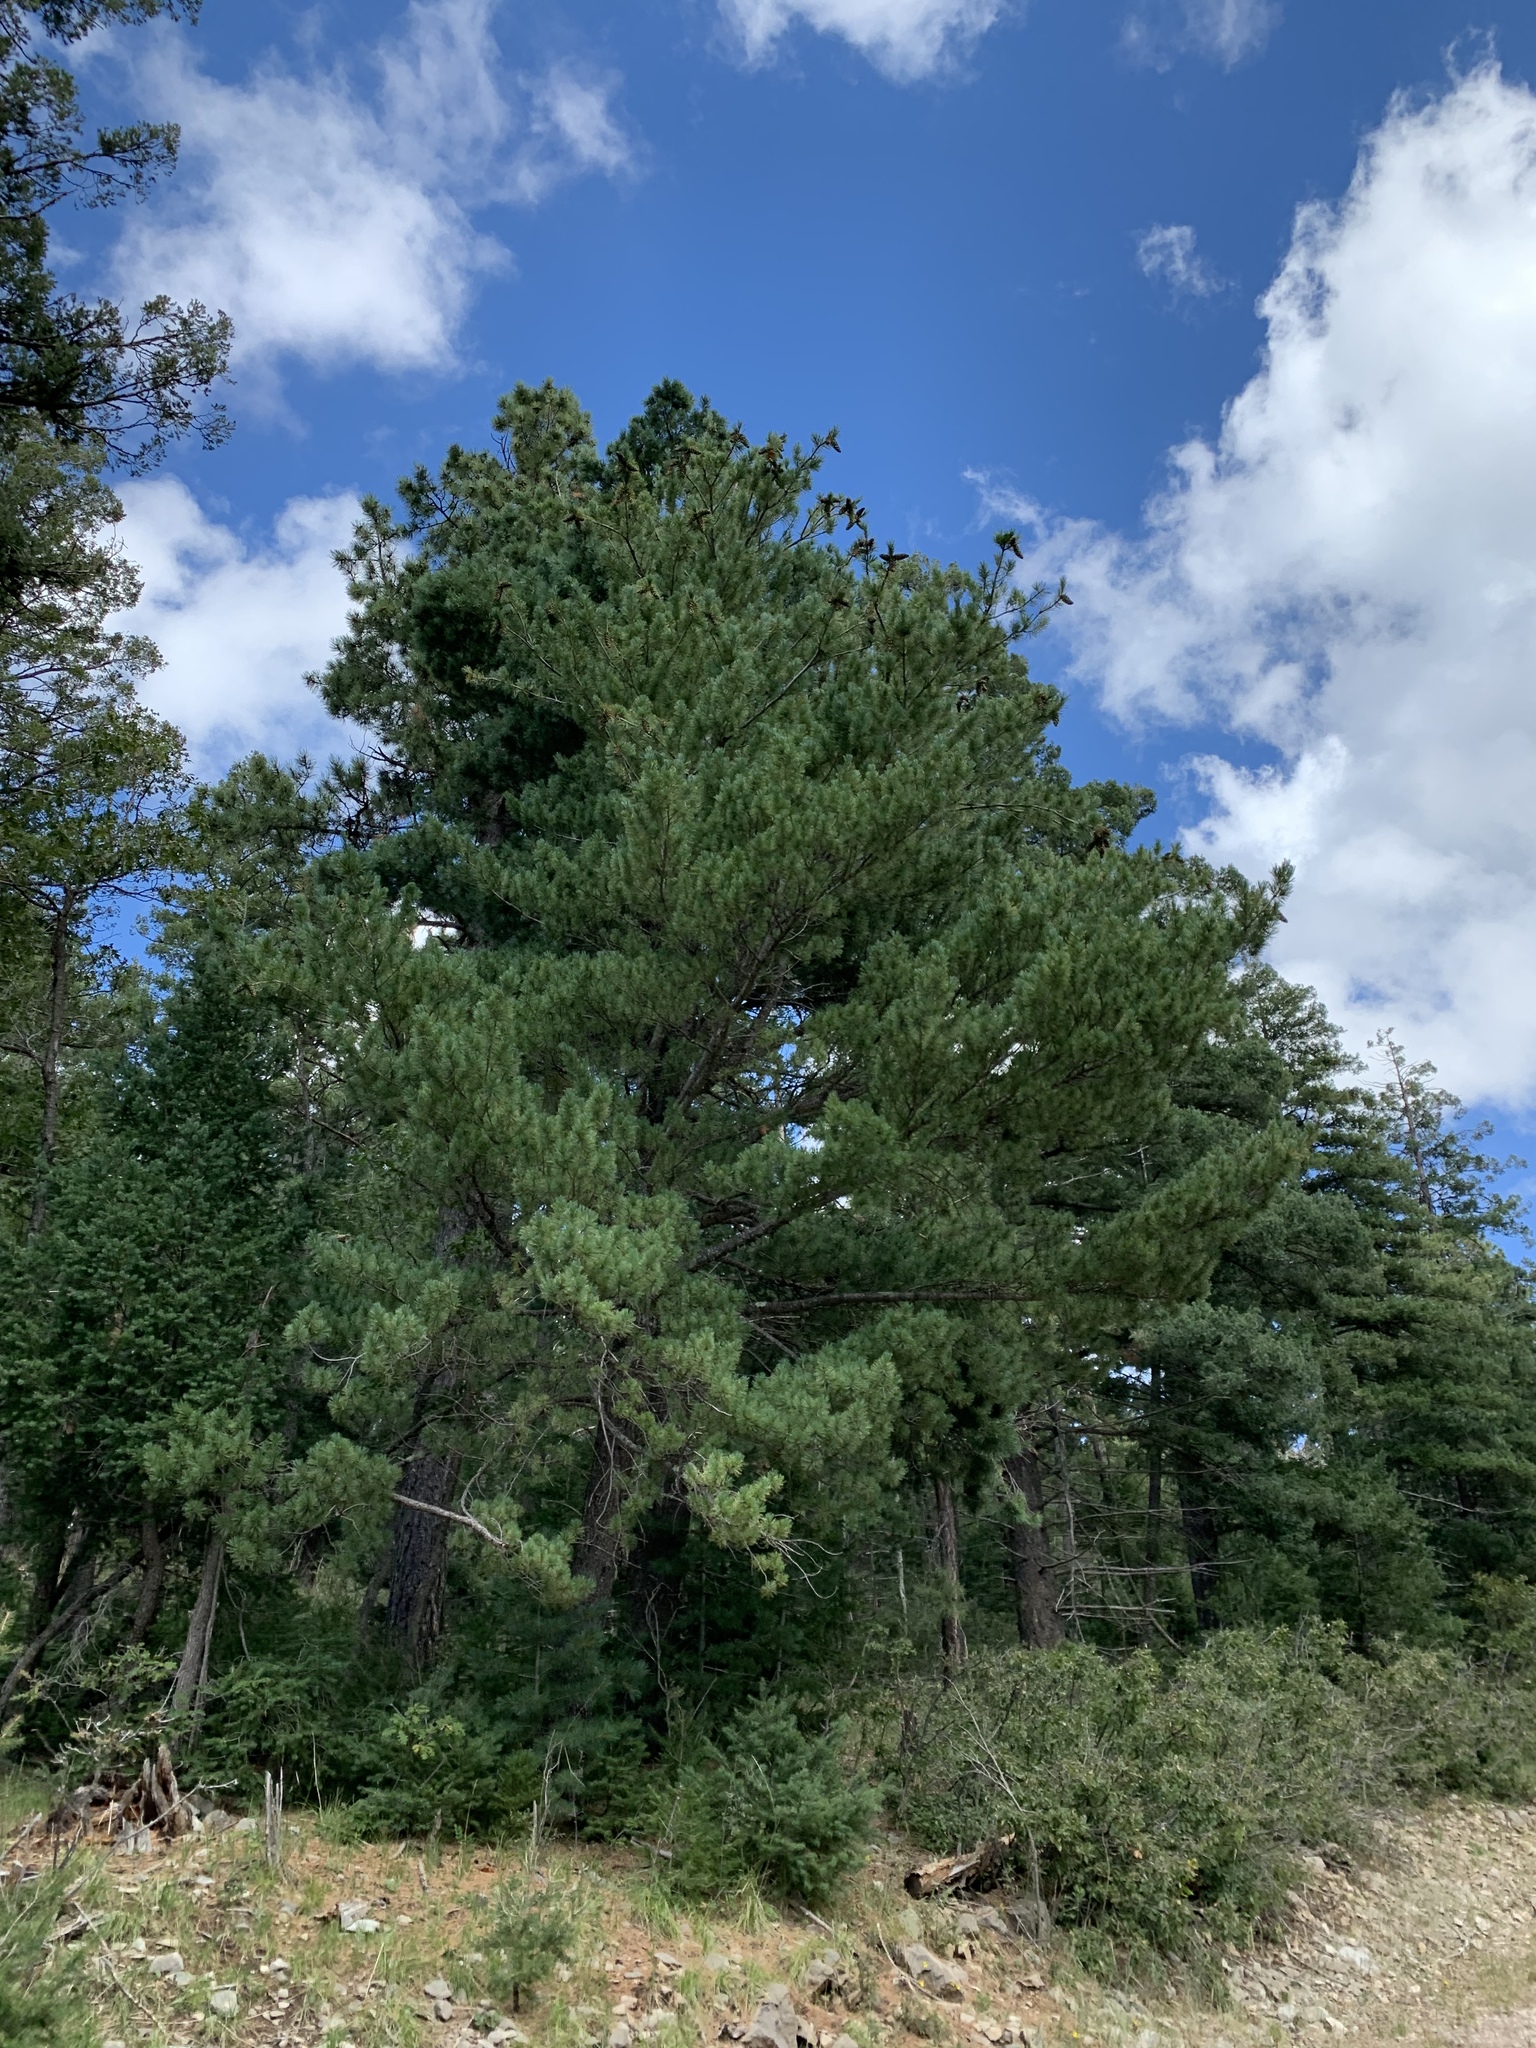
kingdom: Plantae
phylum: Tracheophyta
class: Pinopsida
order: Pinales
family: Pinaceae
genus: Pinus
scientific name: Pinus strobiformis
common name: Southwestern white pine
